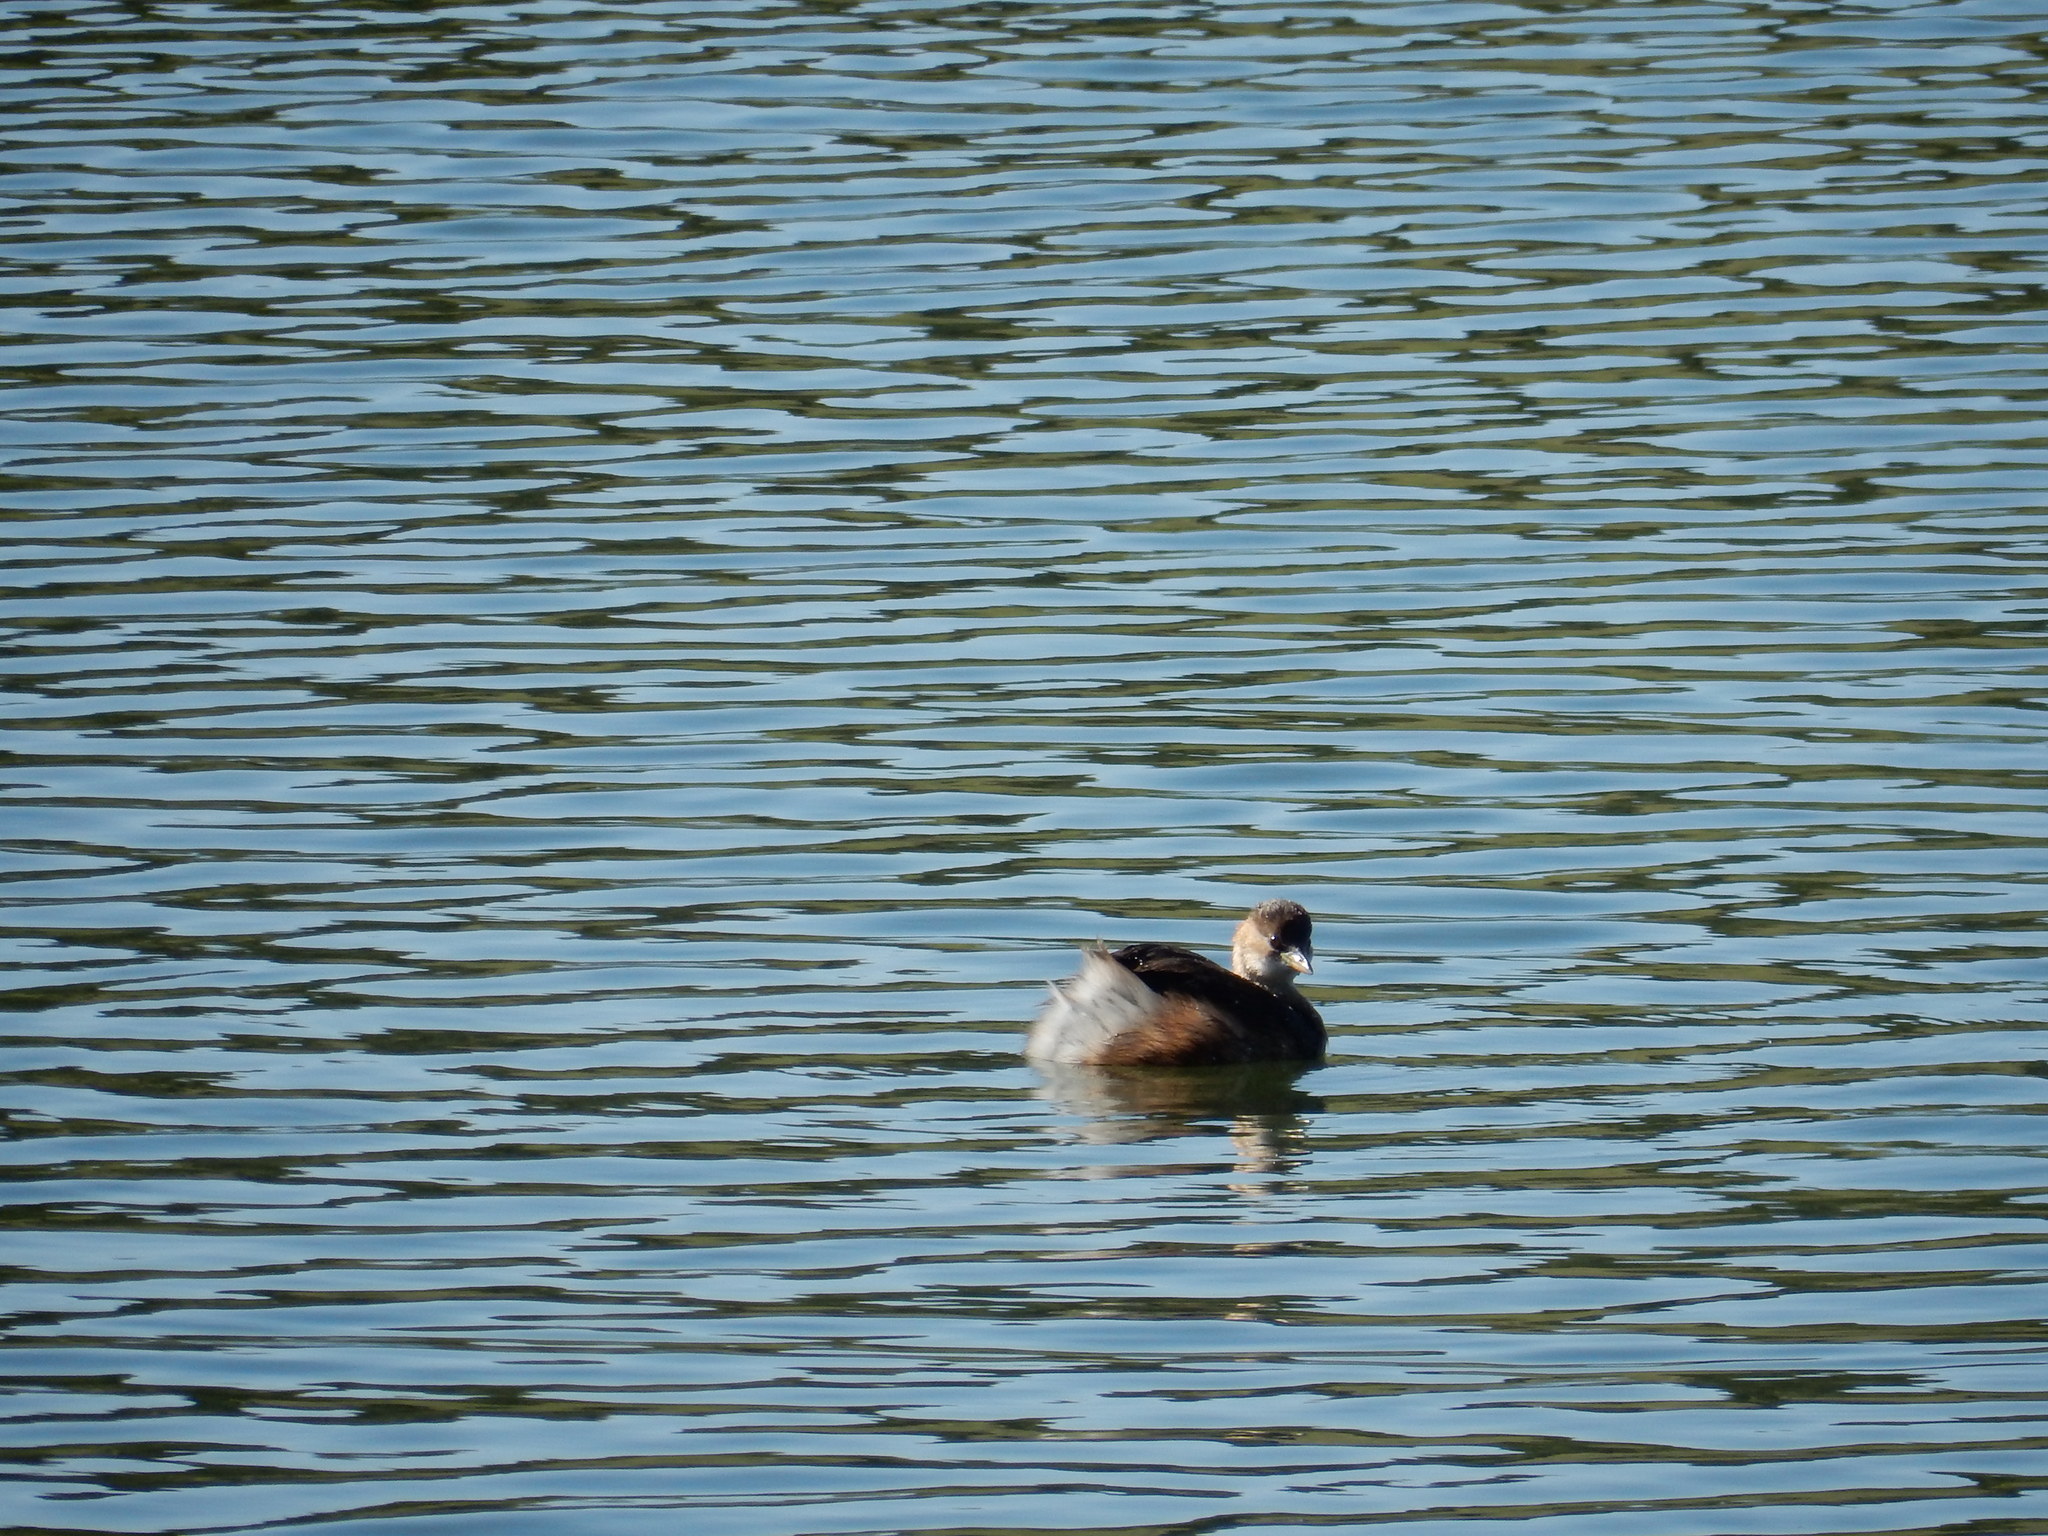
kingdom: Animalia
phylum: Chordata
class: Aves
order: Podicipediformes
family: Podicipedidae
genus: Tachybaptus
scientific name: Tachybaptus ruficollis
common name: Little grebe
